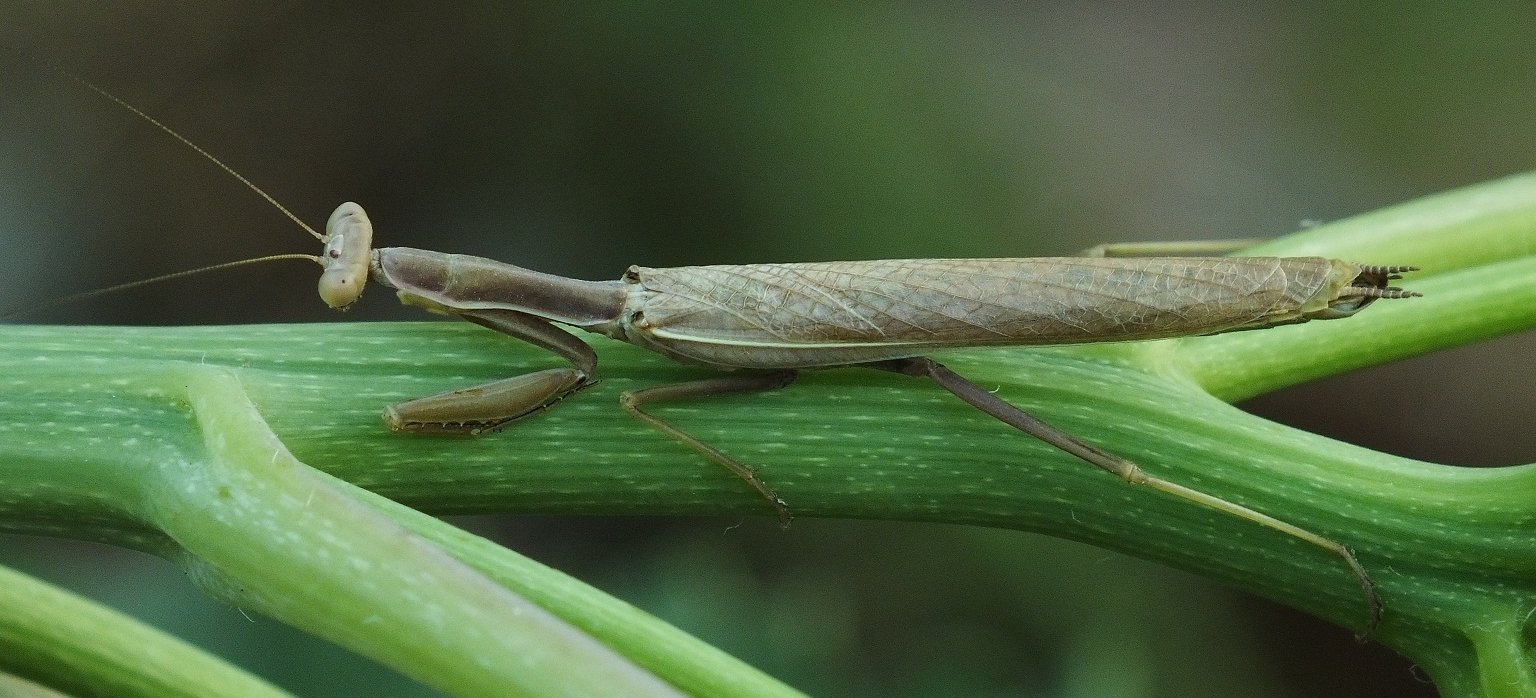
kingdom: Animalia
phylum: Arthropoda
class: Insecta
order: Mantodea
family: Eremiaphilidae
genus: Iris
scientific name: Iris polystictica
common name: Dot-winged mantis
